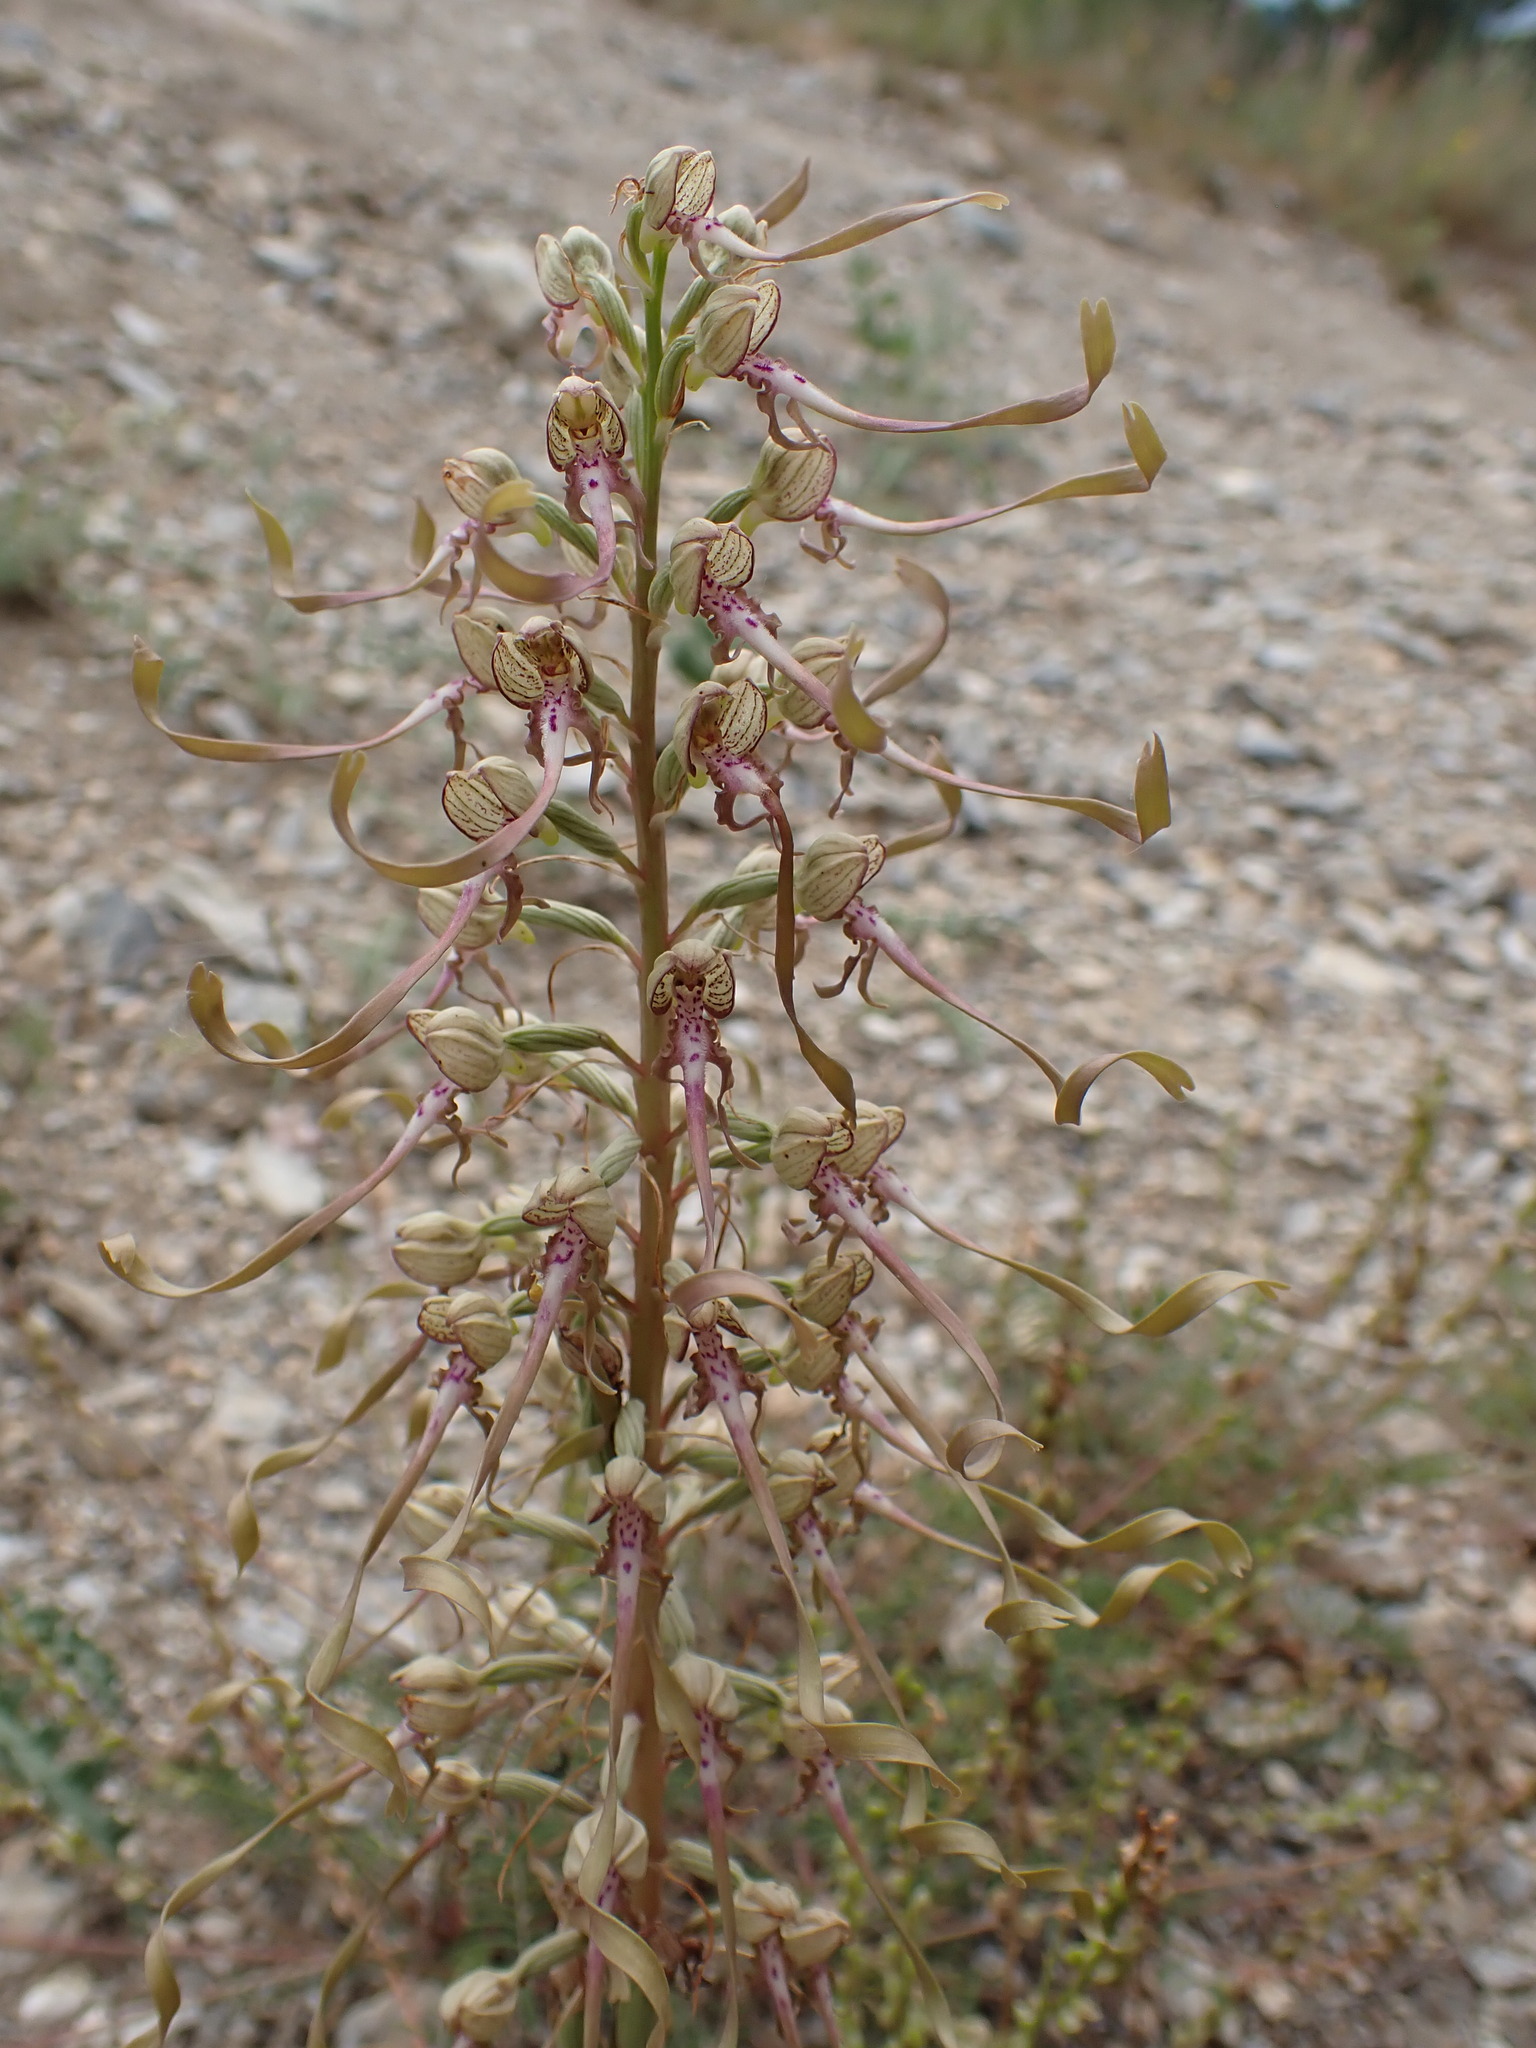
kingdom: Plantae
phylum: Tracheophyta
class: Liliopsida
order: Asparagales
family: Orchidaceae
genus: Himantoglossum
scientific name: Himantoglossum hircinum
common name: Lizard orchid
